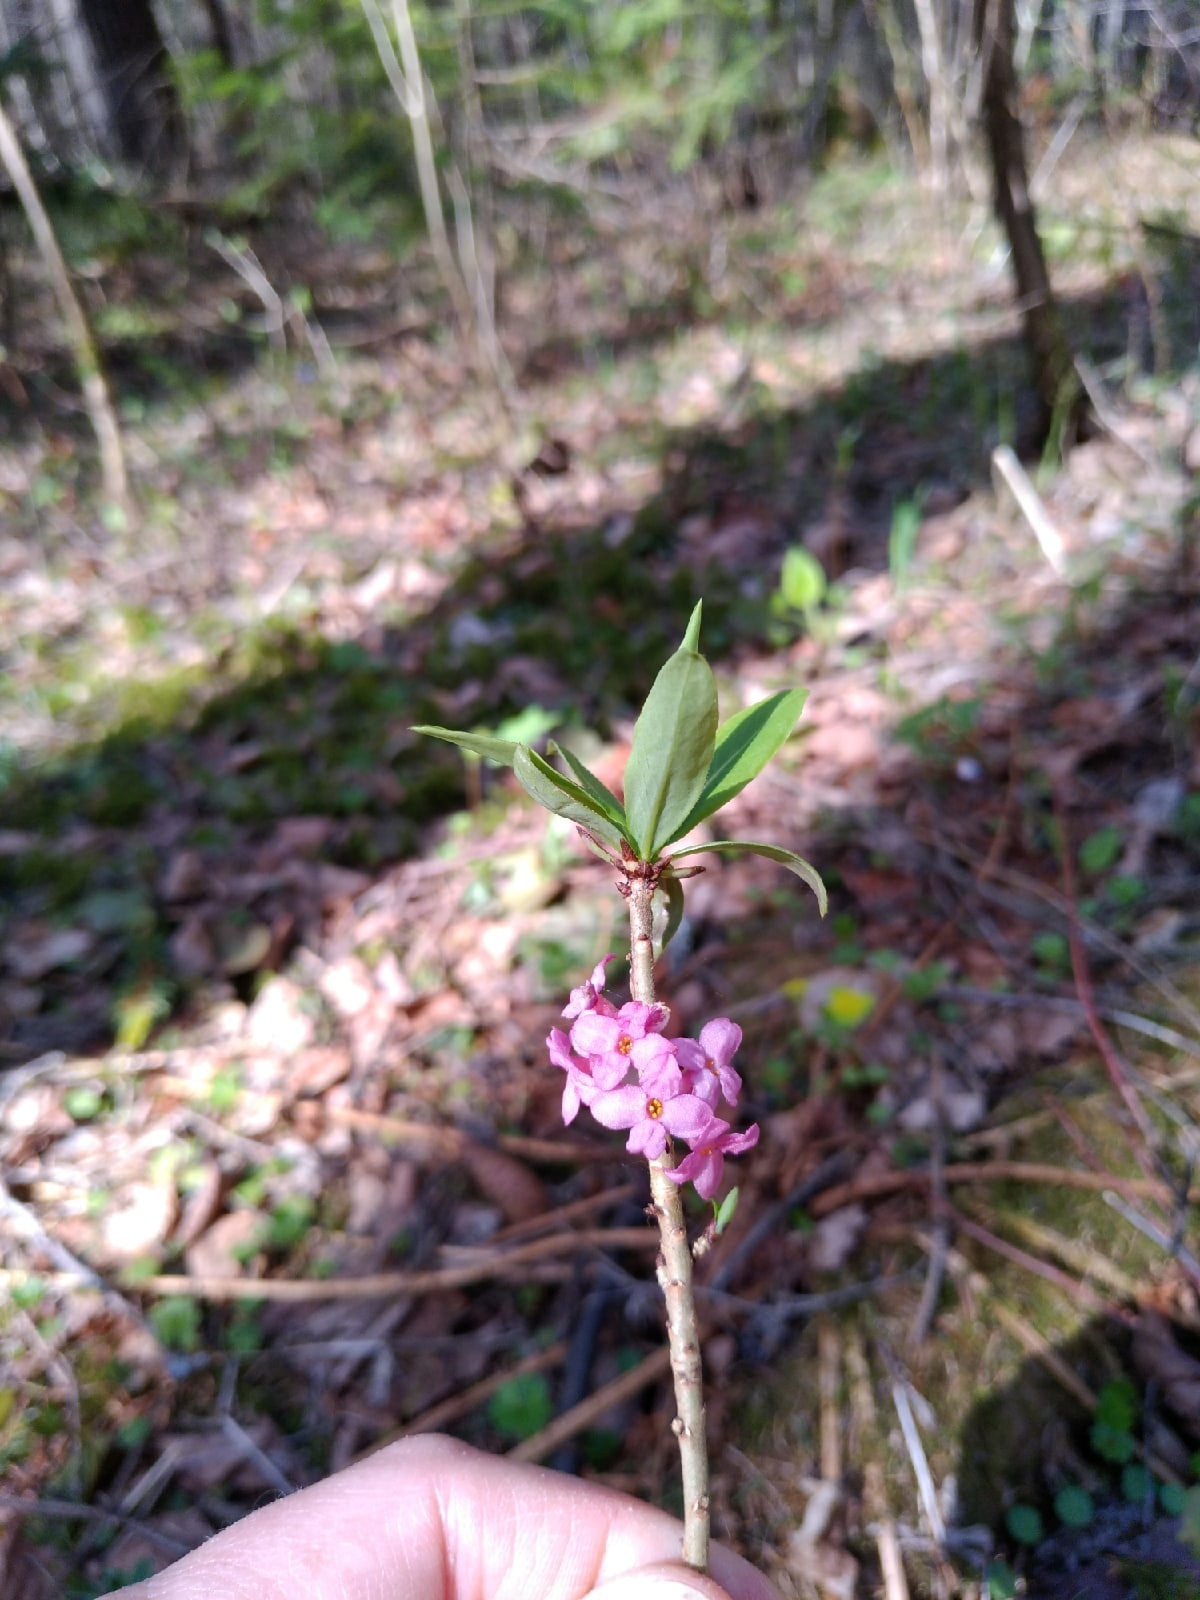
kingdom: Plantae
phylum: Tracheophyta
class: Magnoliopsida
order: Malvales
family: Thymelaeaceae
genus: Daphne
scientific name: Daphne mezereum
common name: Mezereon
